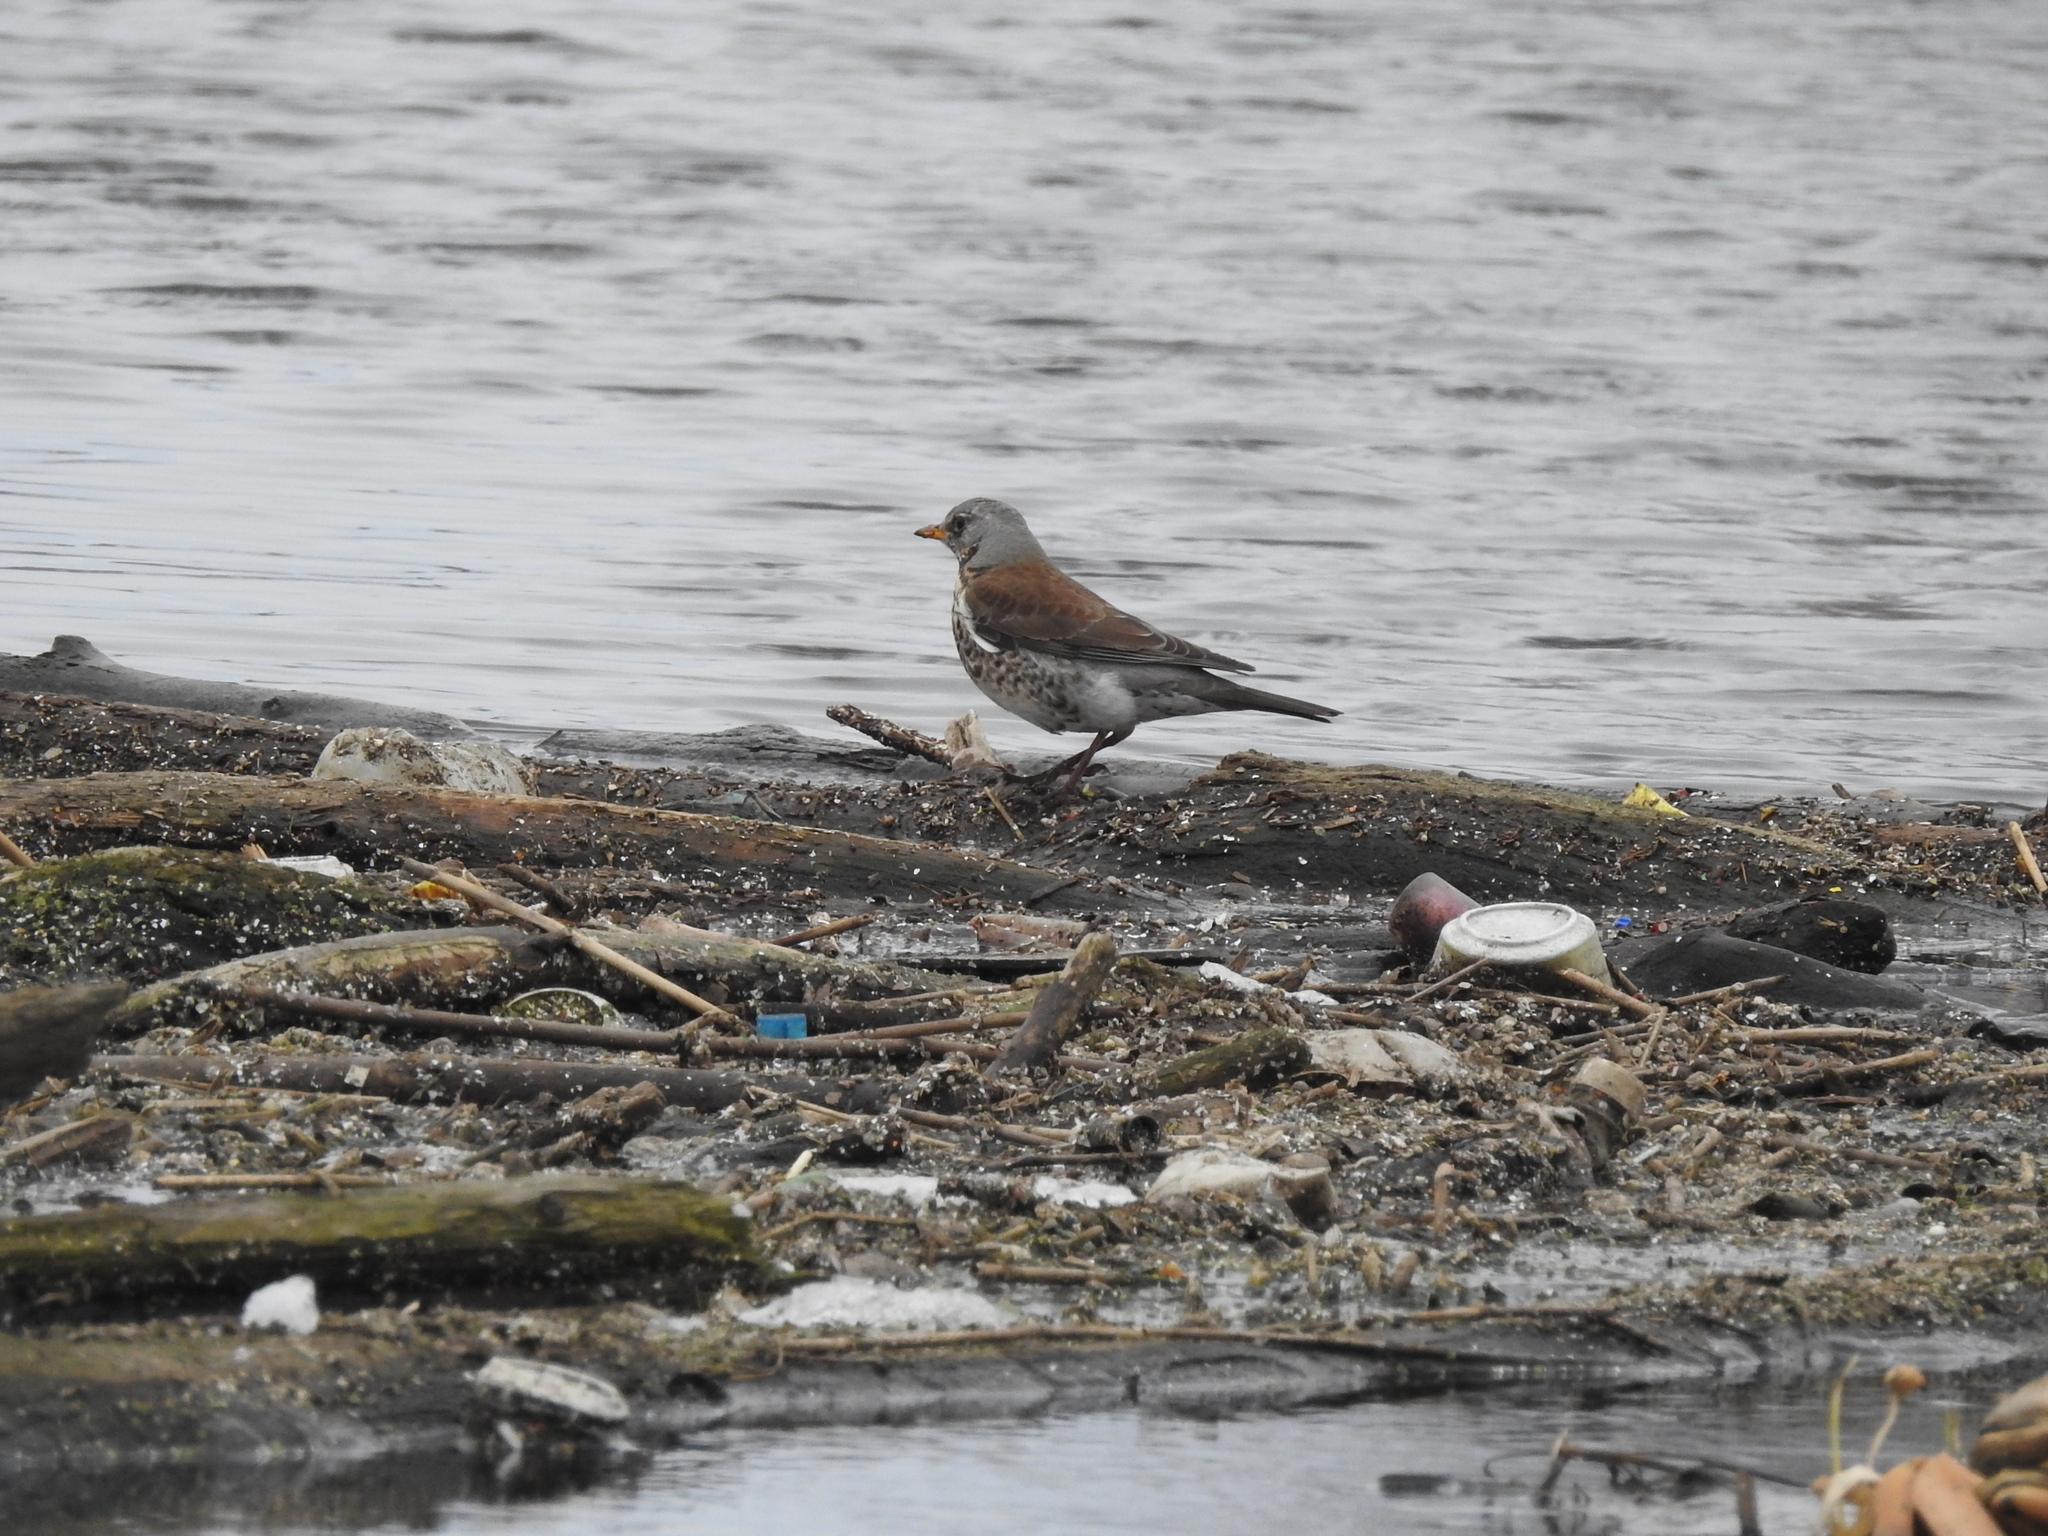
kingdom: Animalia
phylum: Chordata
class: Aves
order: Passeriformes
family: Turdidae
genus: Turdus
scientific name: Turdus pilaris
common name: Fieldfare
